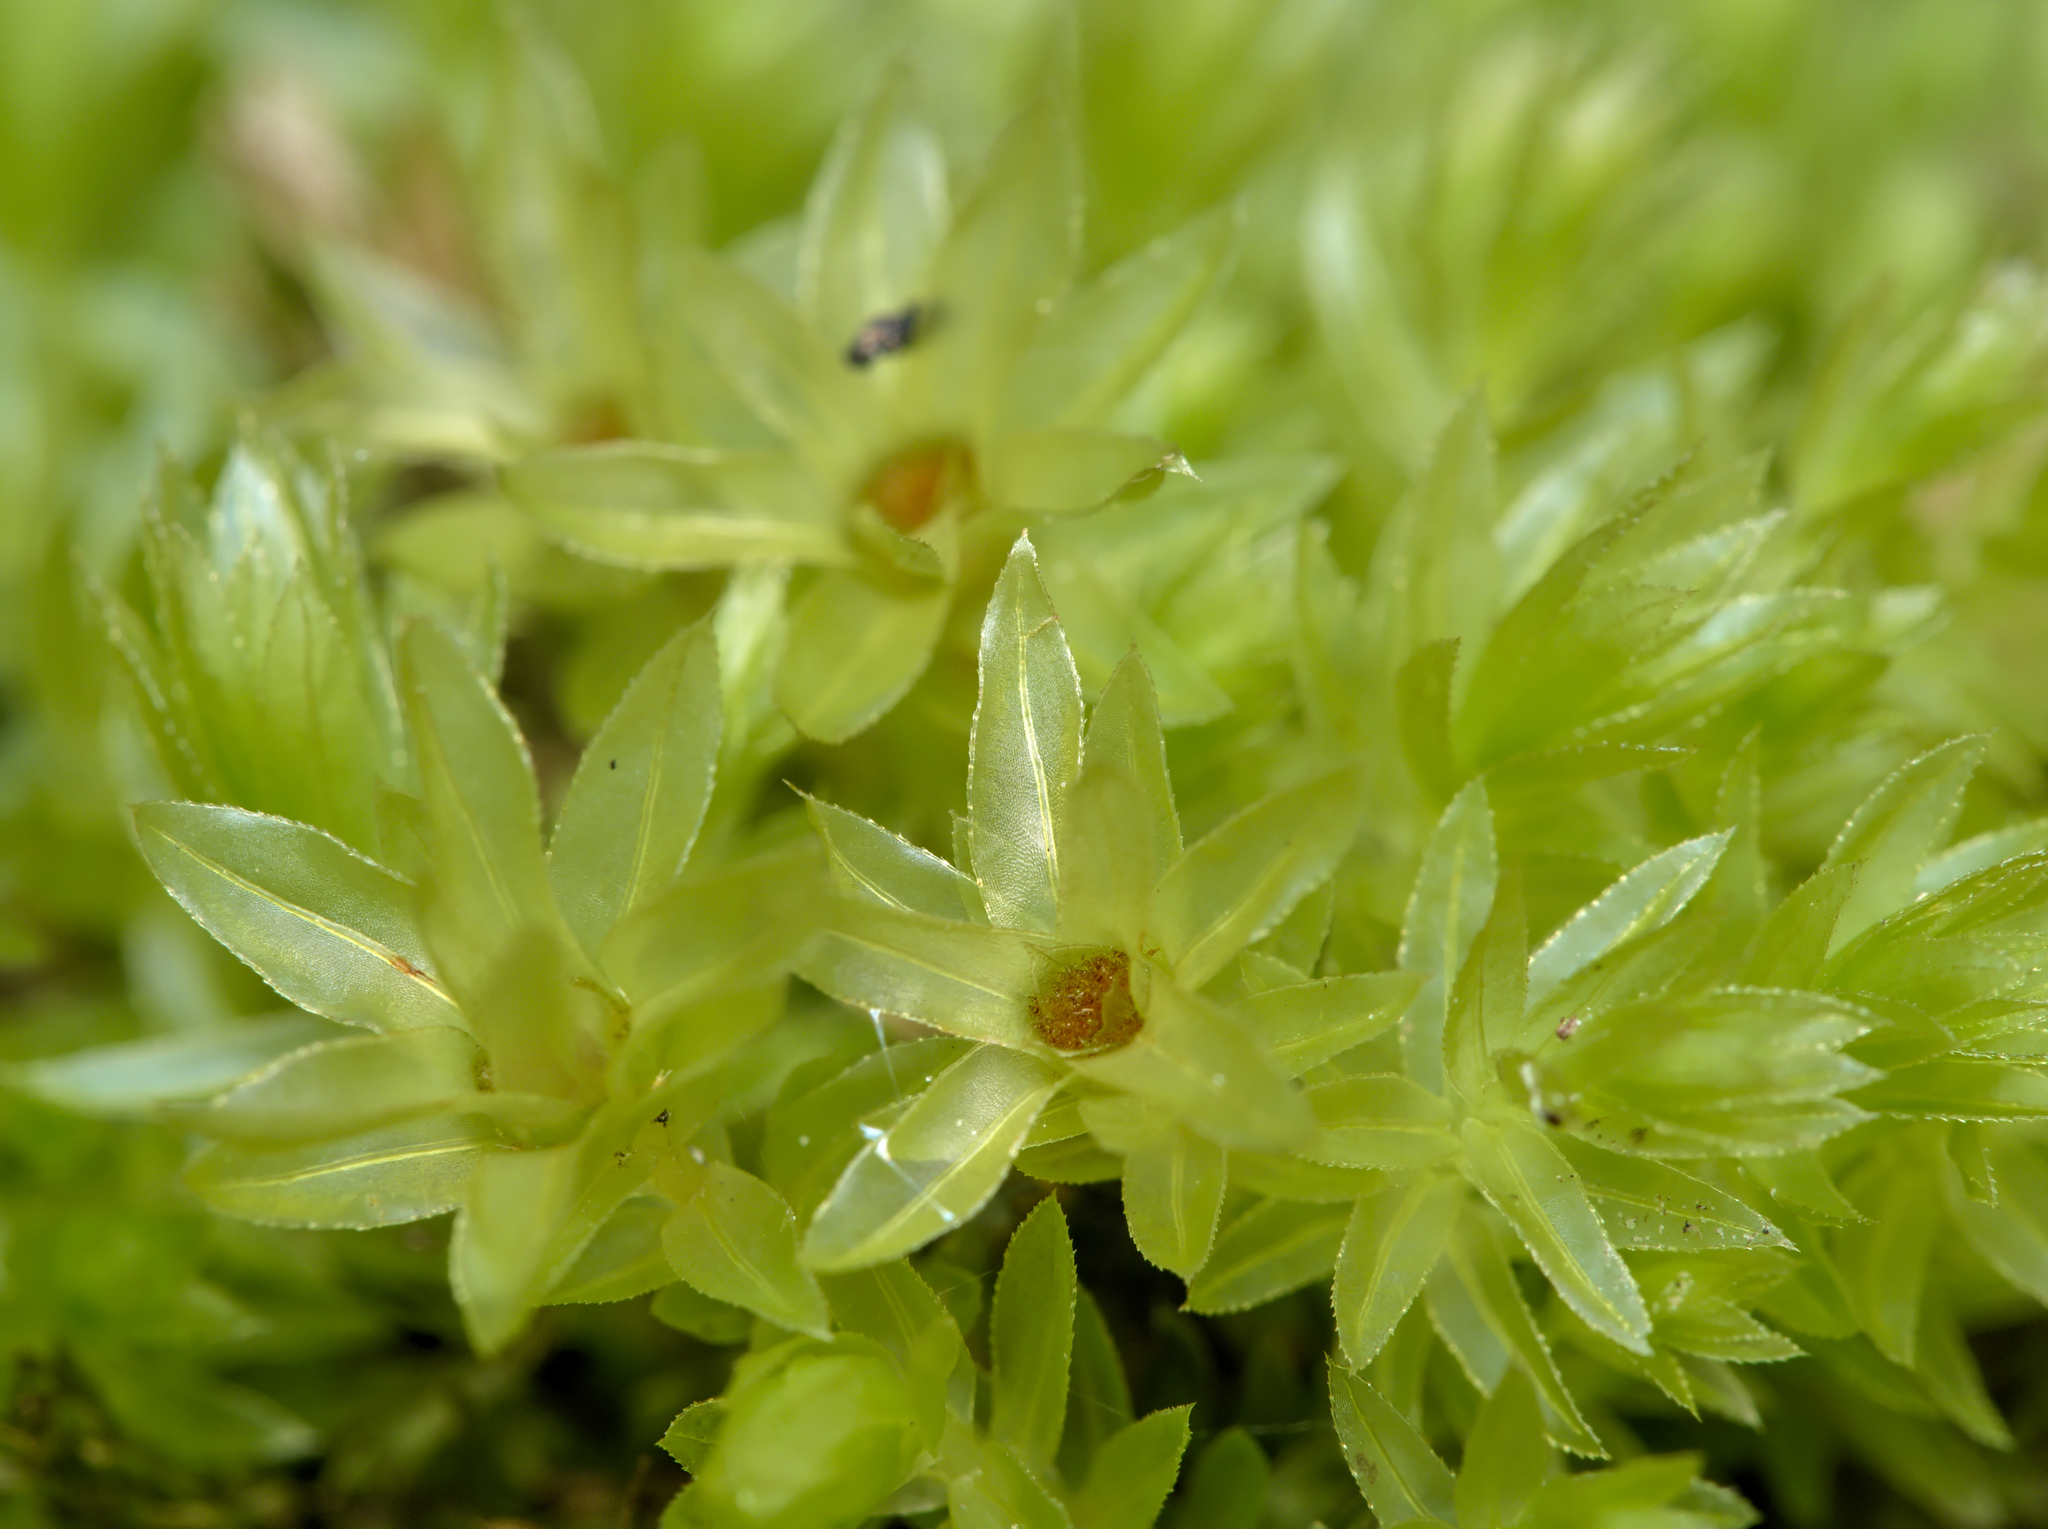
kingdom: Plantae
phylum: Bryophyta
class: Bryopsida
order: Bryales
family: Mniaceae
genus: Mnium
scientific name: Mnium hornum
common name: Swan's-neck leafy moss
